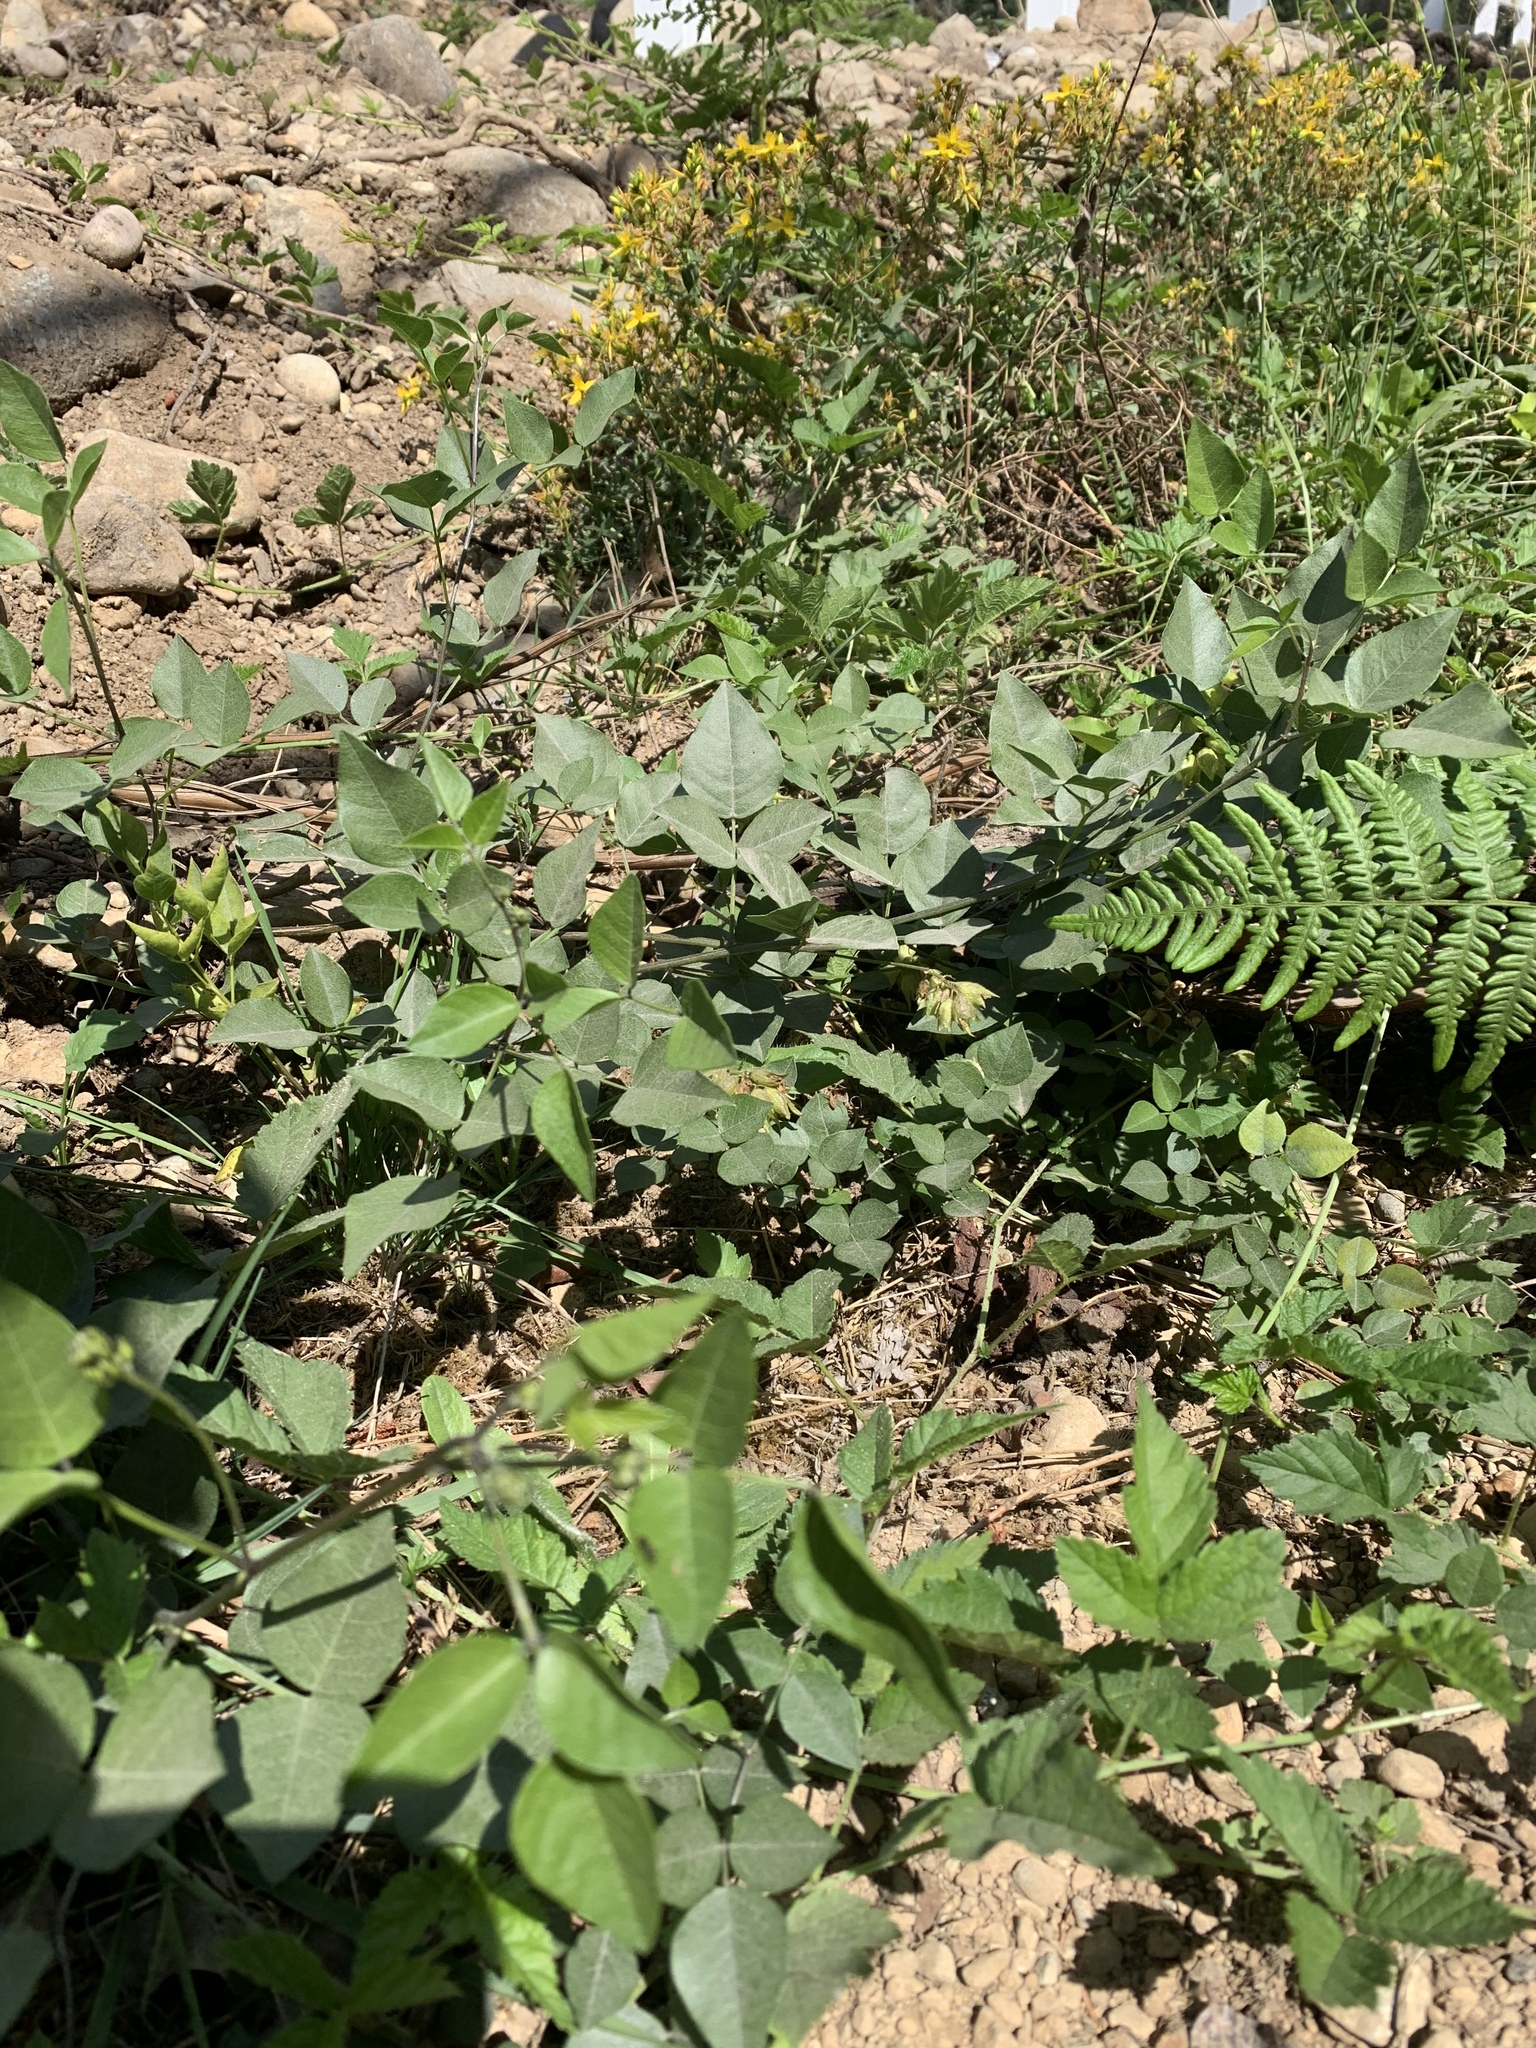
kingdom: Plantae
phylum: Tracheophyta
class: Magnoliopsida
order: Fabales
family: Fabaceae
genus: Rupertia
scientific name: Rupertia physodes
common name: California-tea
